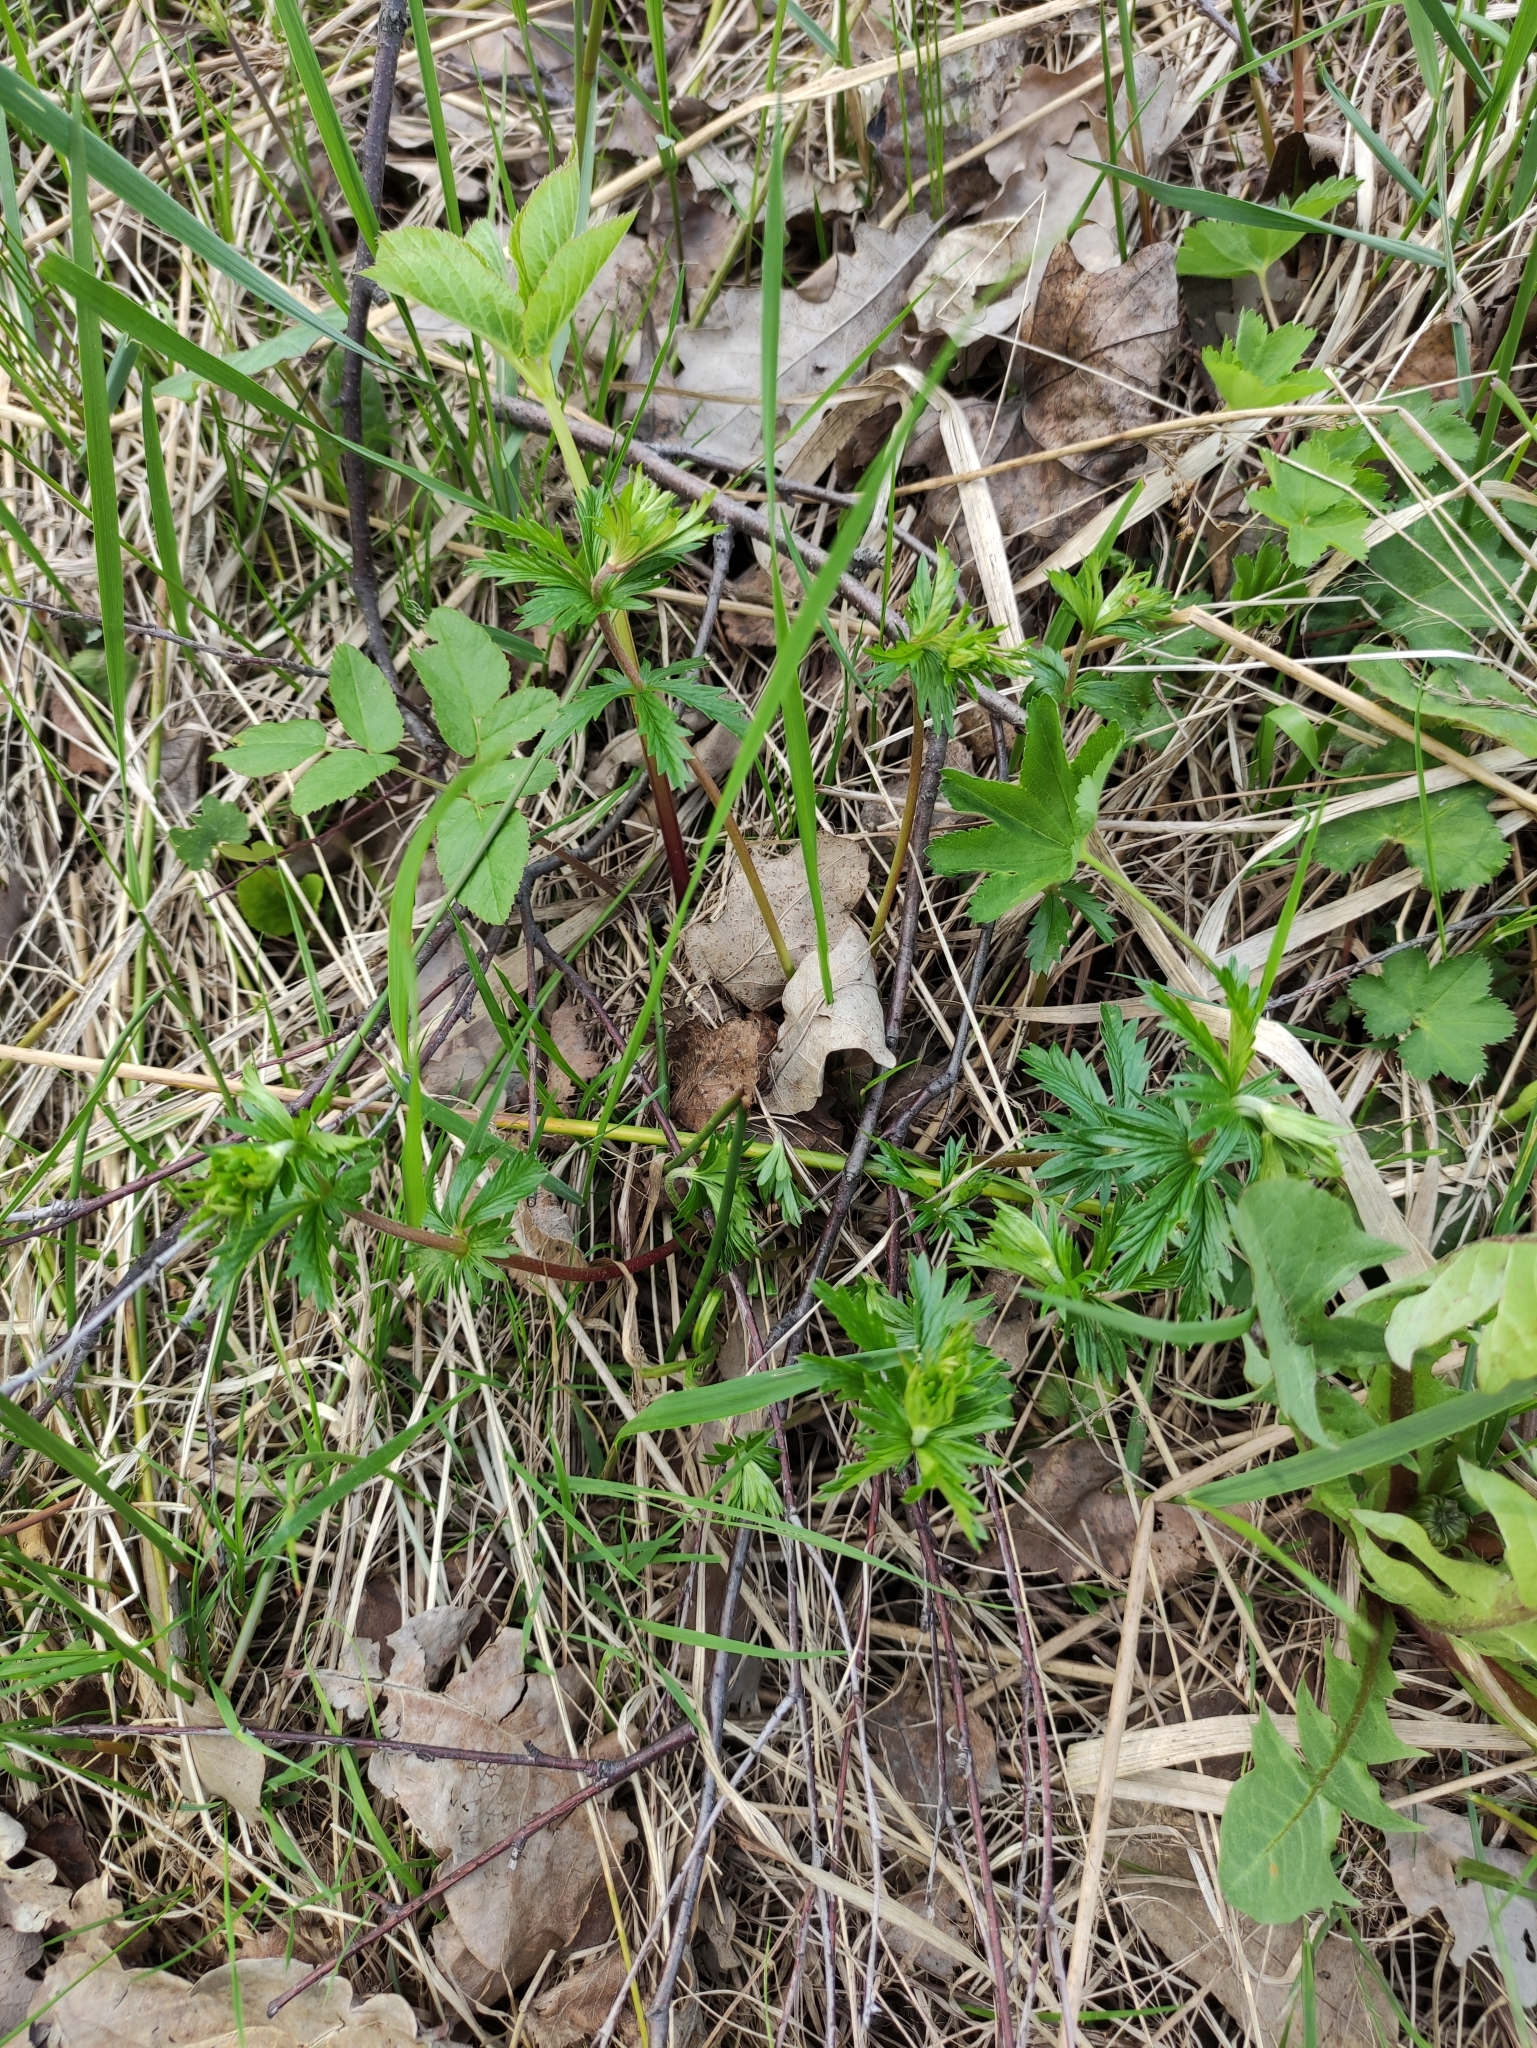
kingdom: Plantae
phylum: Tracheophyta
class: Magnoliopsida
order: Rosales
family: Rosaceae
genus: Potentilla
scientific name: Potentilla erecta
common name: Tormentil
